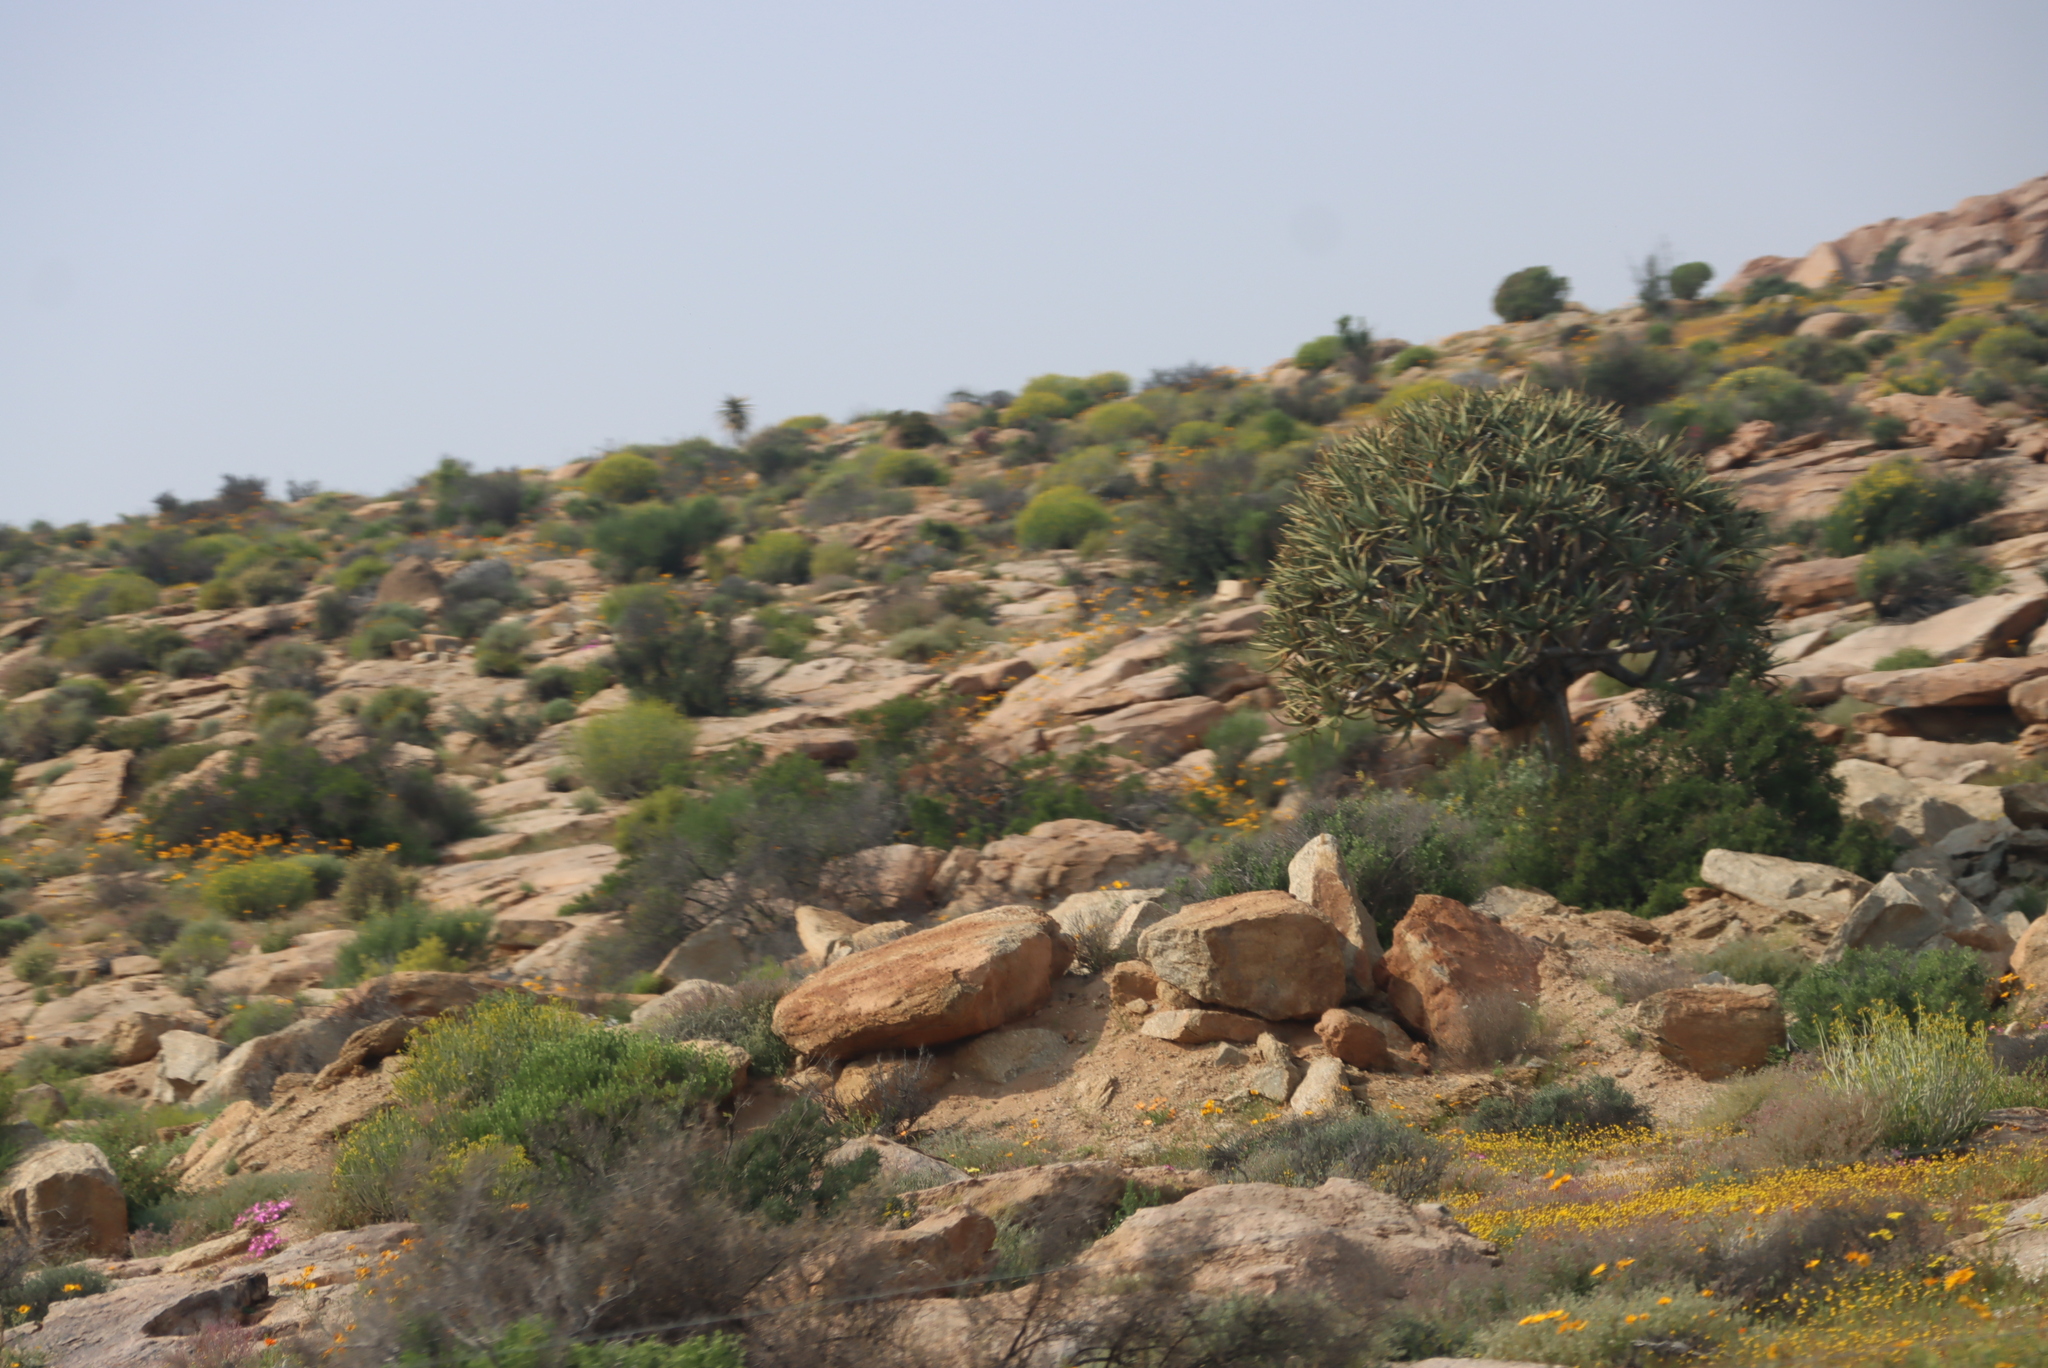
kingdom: Plantae
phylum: Tracheophyta
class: Liliopsida
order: Asparagales
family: Asphodelaceae
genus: Aloidendron
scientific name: Aloidendron dichotomum
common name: Quiver tree
